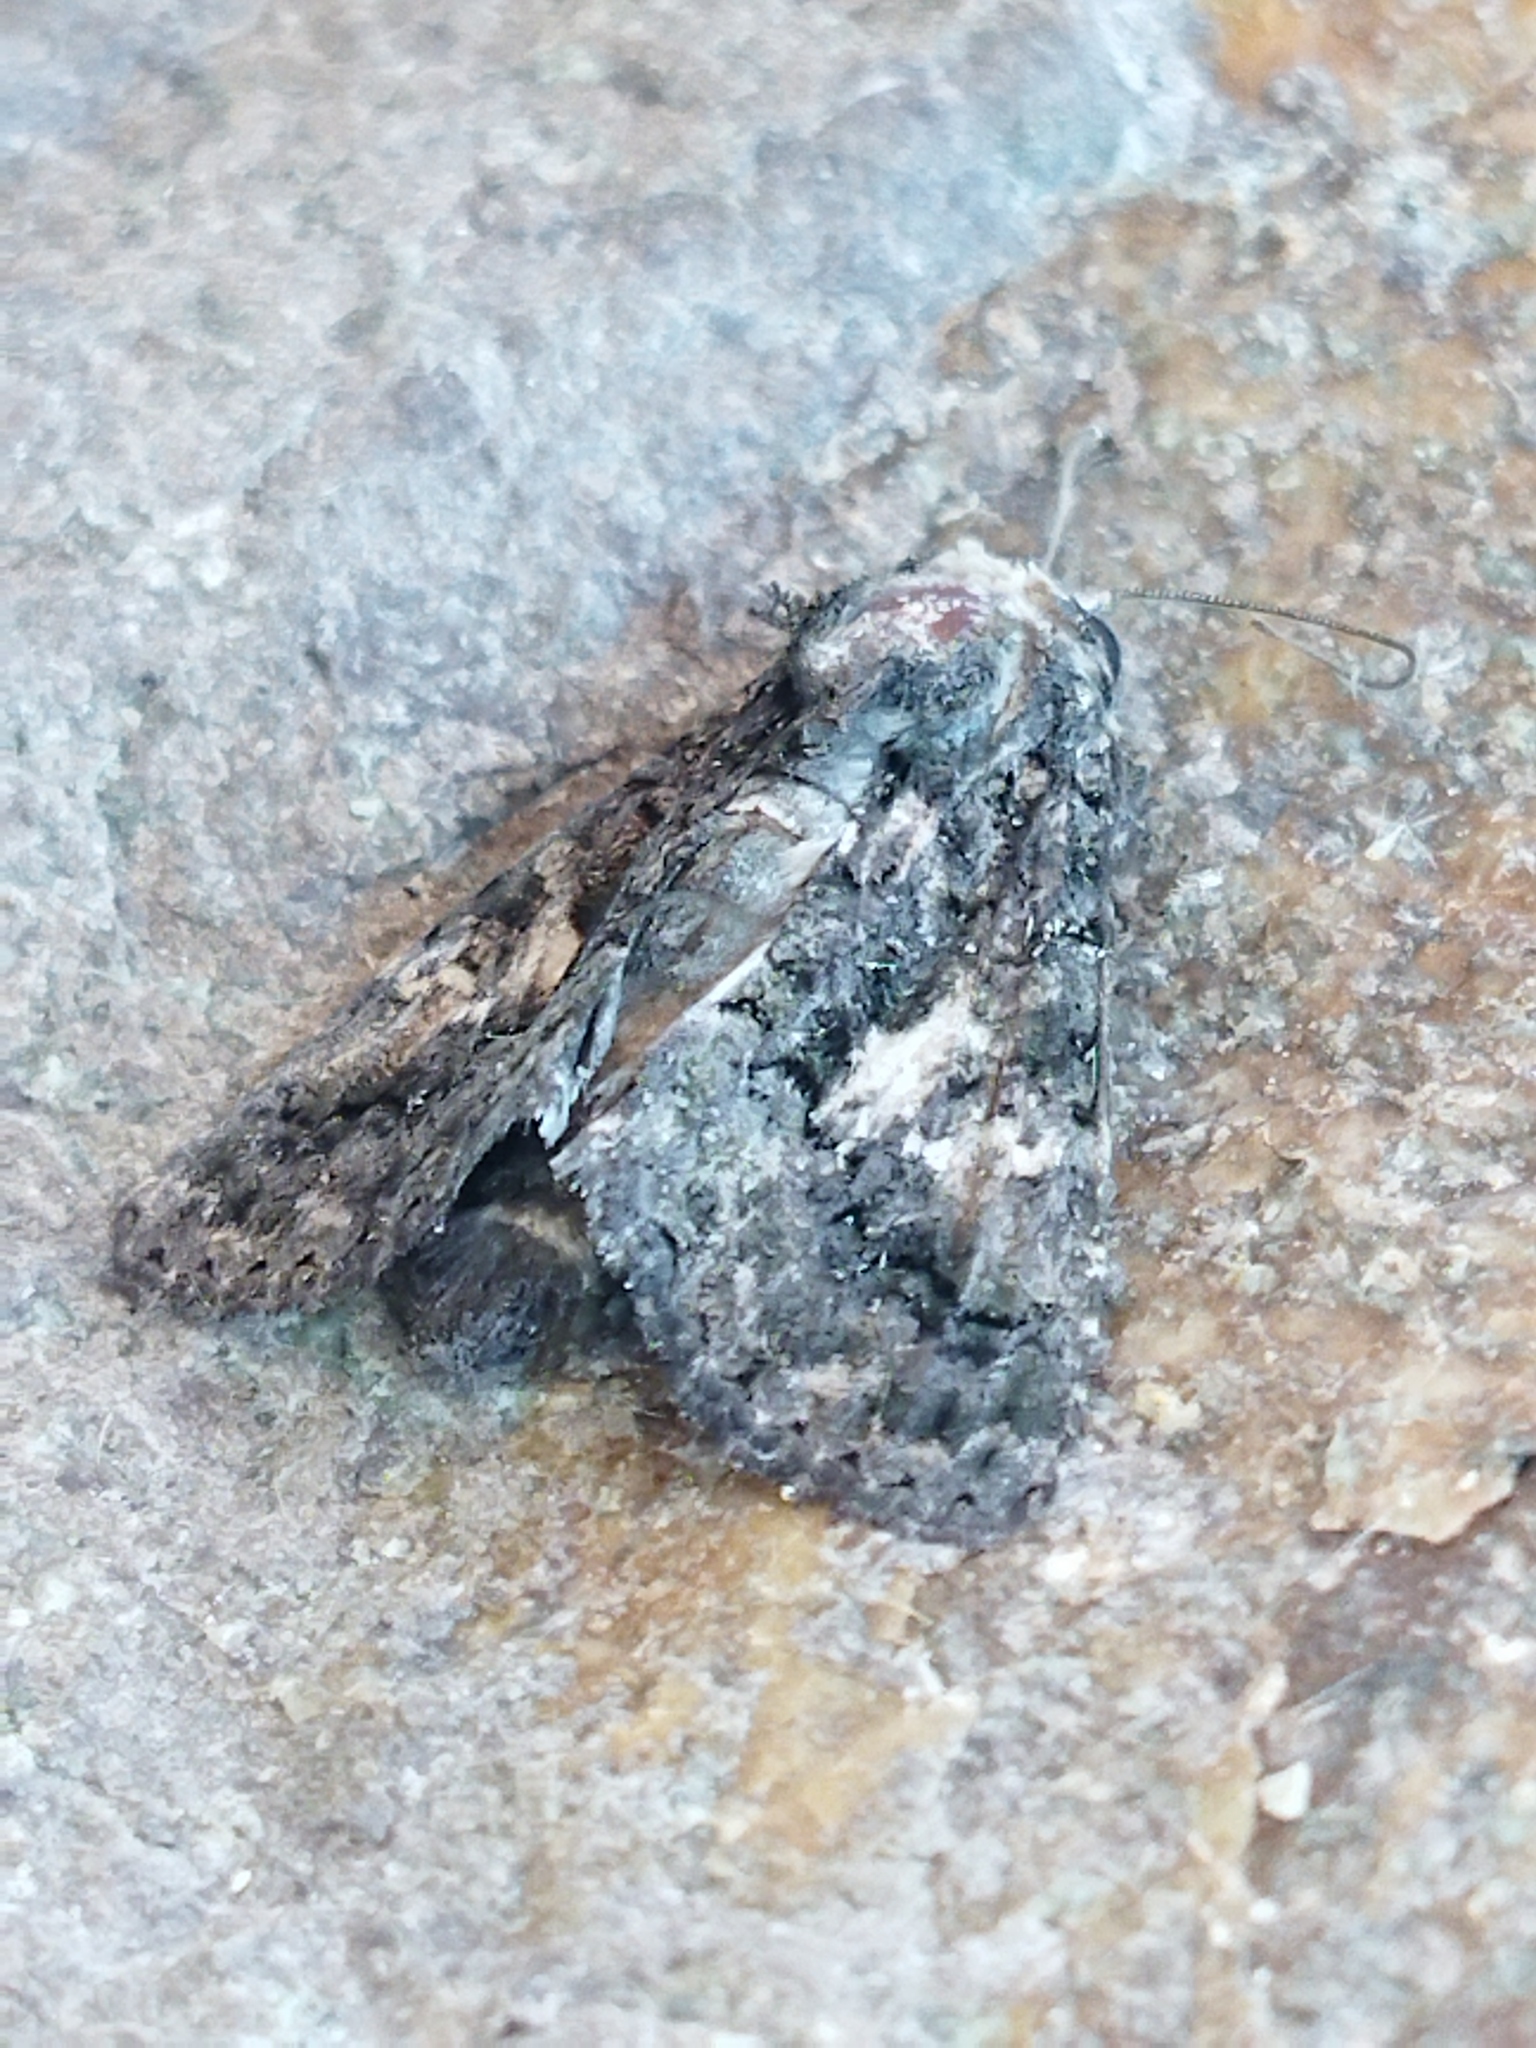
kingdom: Animalia
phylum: Arthropoda
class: Insecta
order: Lepidoptera
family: Noctuidae
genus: Aedia
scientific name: Aedia leucomelas
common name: Sorcerer
